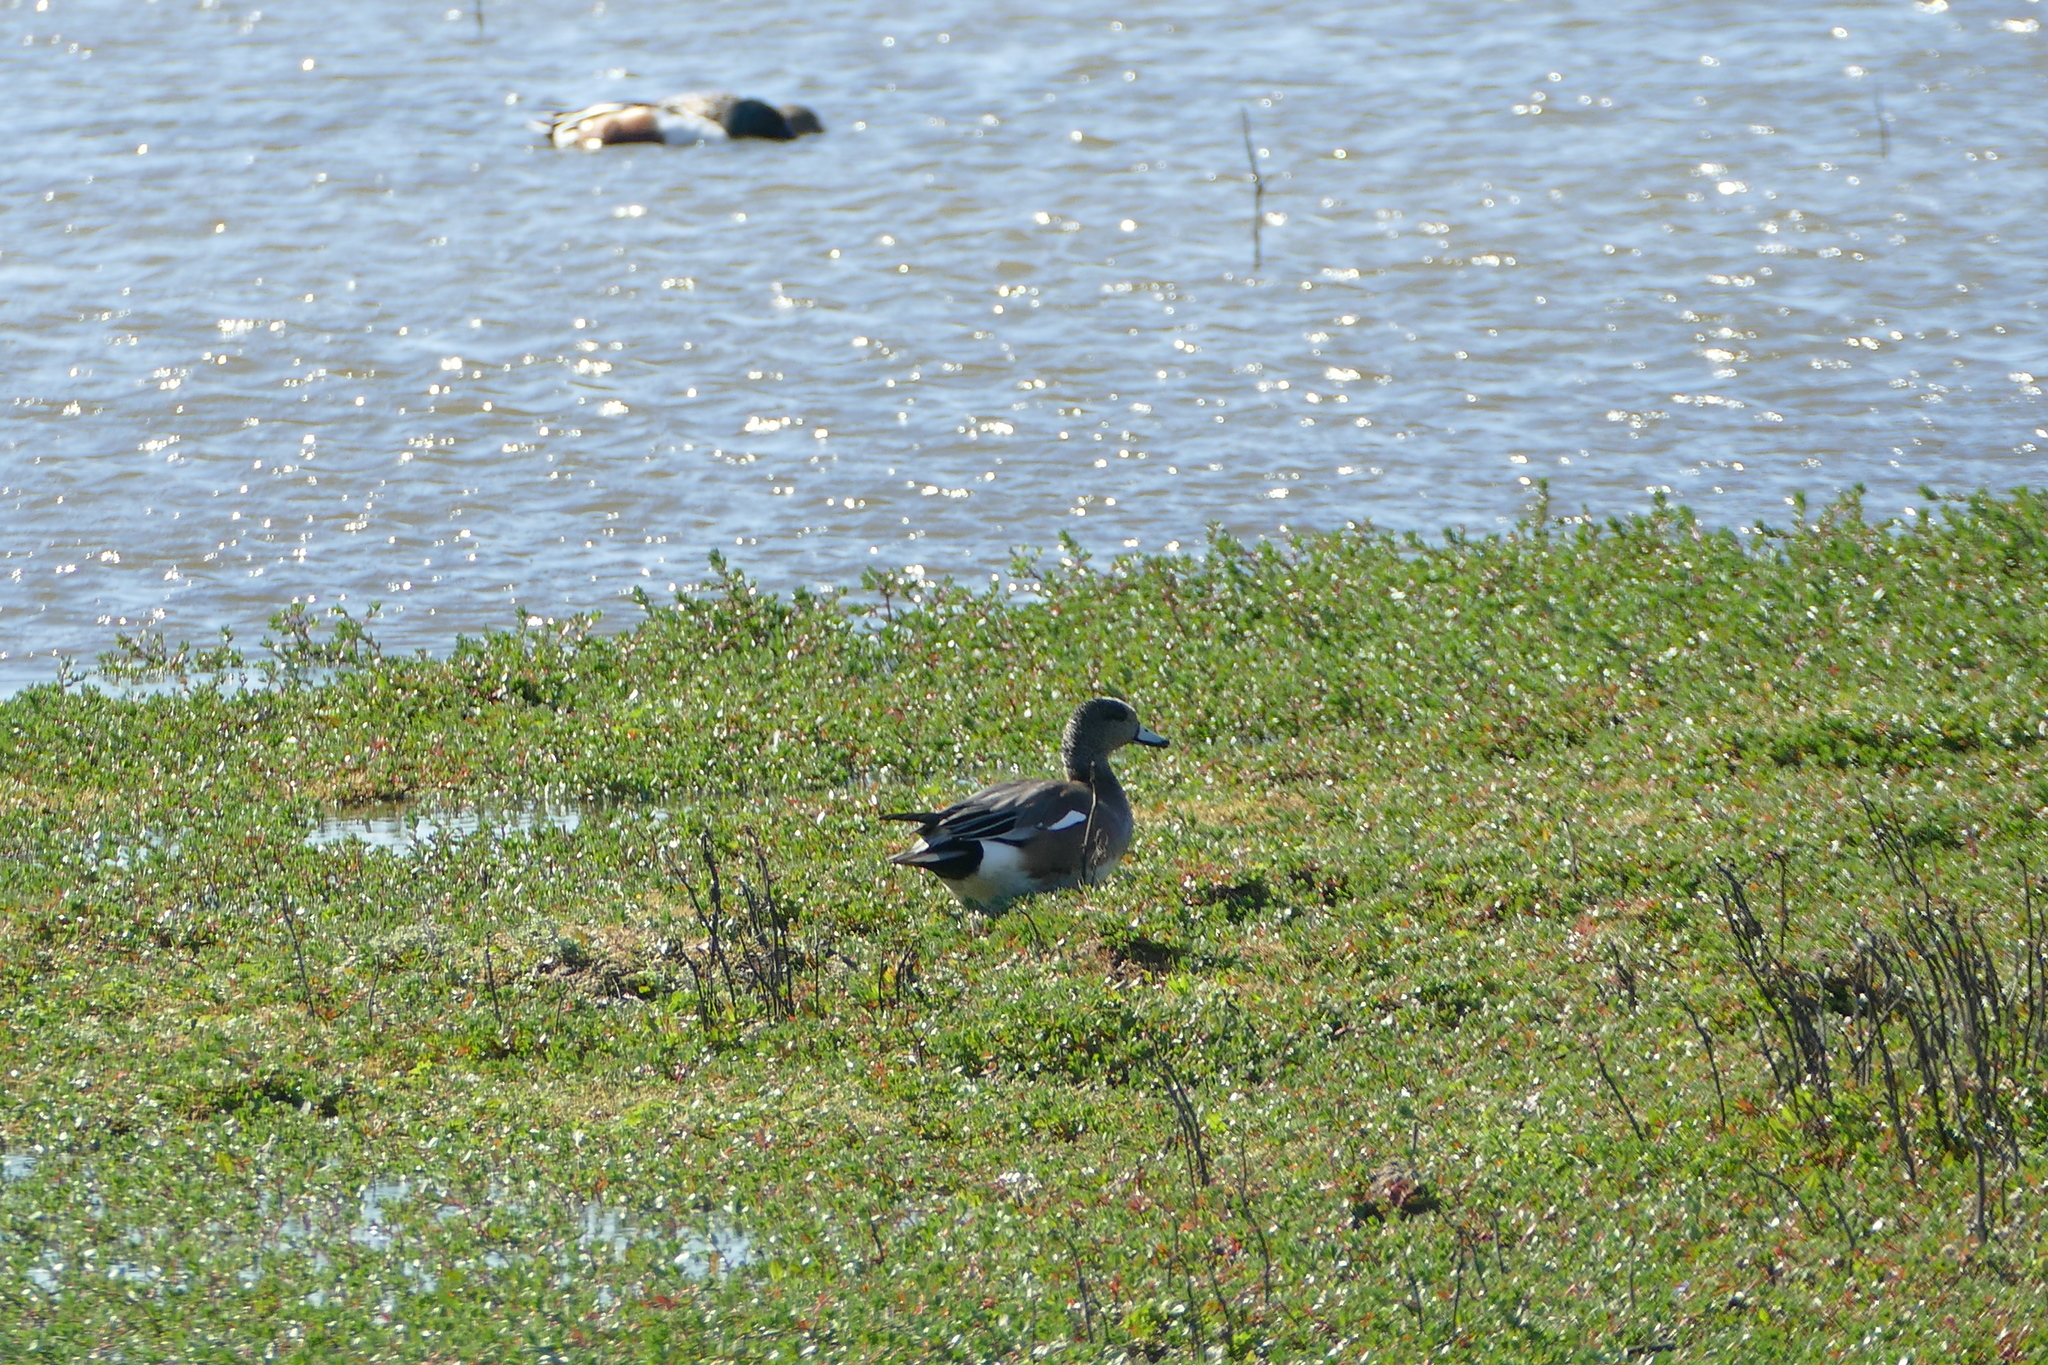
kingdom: Animalia
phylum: Chordata
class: Aves
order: Anseriformes
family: Anatidae
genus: Mareca
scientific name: Mareca americana
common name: American wigeon
